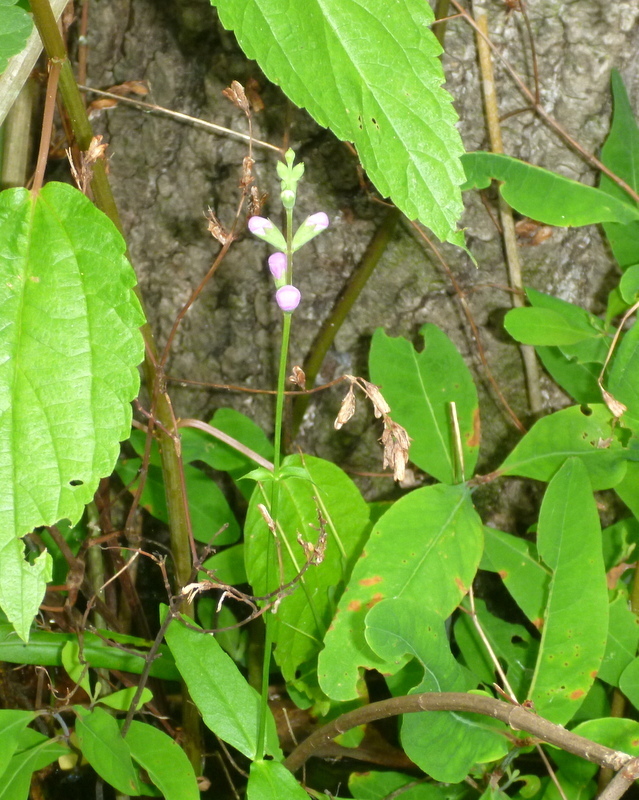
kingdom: Plantae
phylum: Tracheophyta
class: Magnoliopsida
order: Lamiales
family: Lamiaceae
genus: Physostegia
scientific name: Physostegia leptophylla
